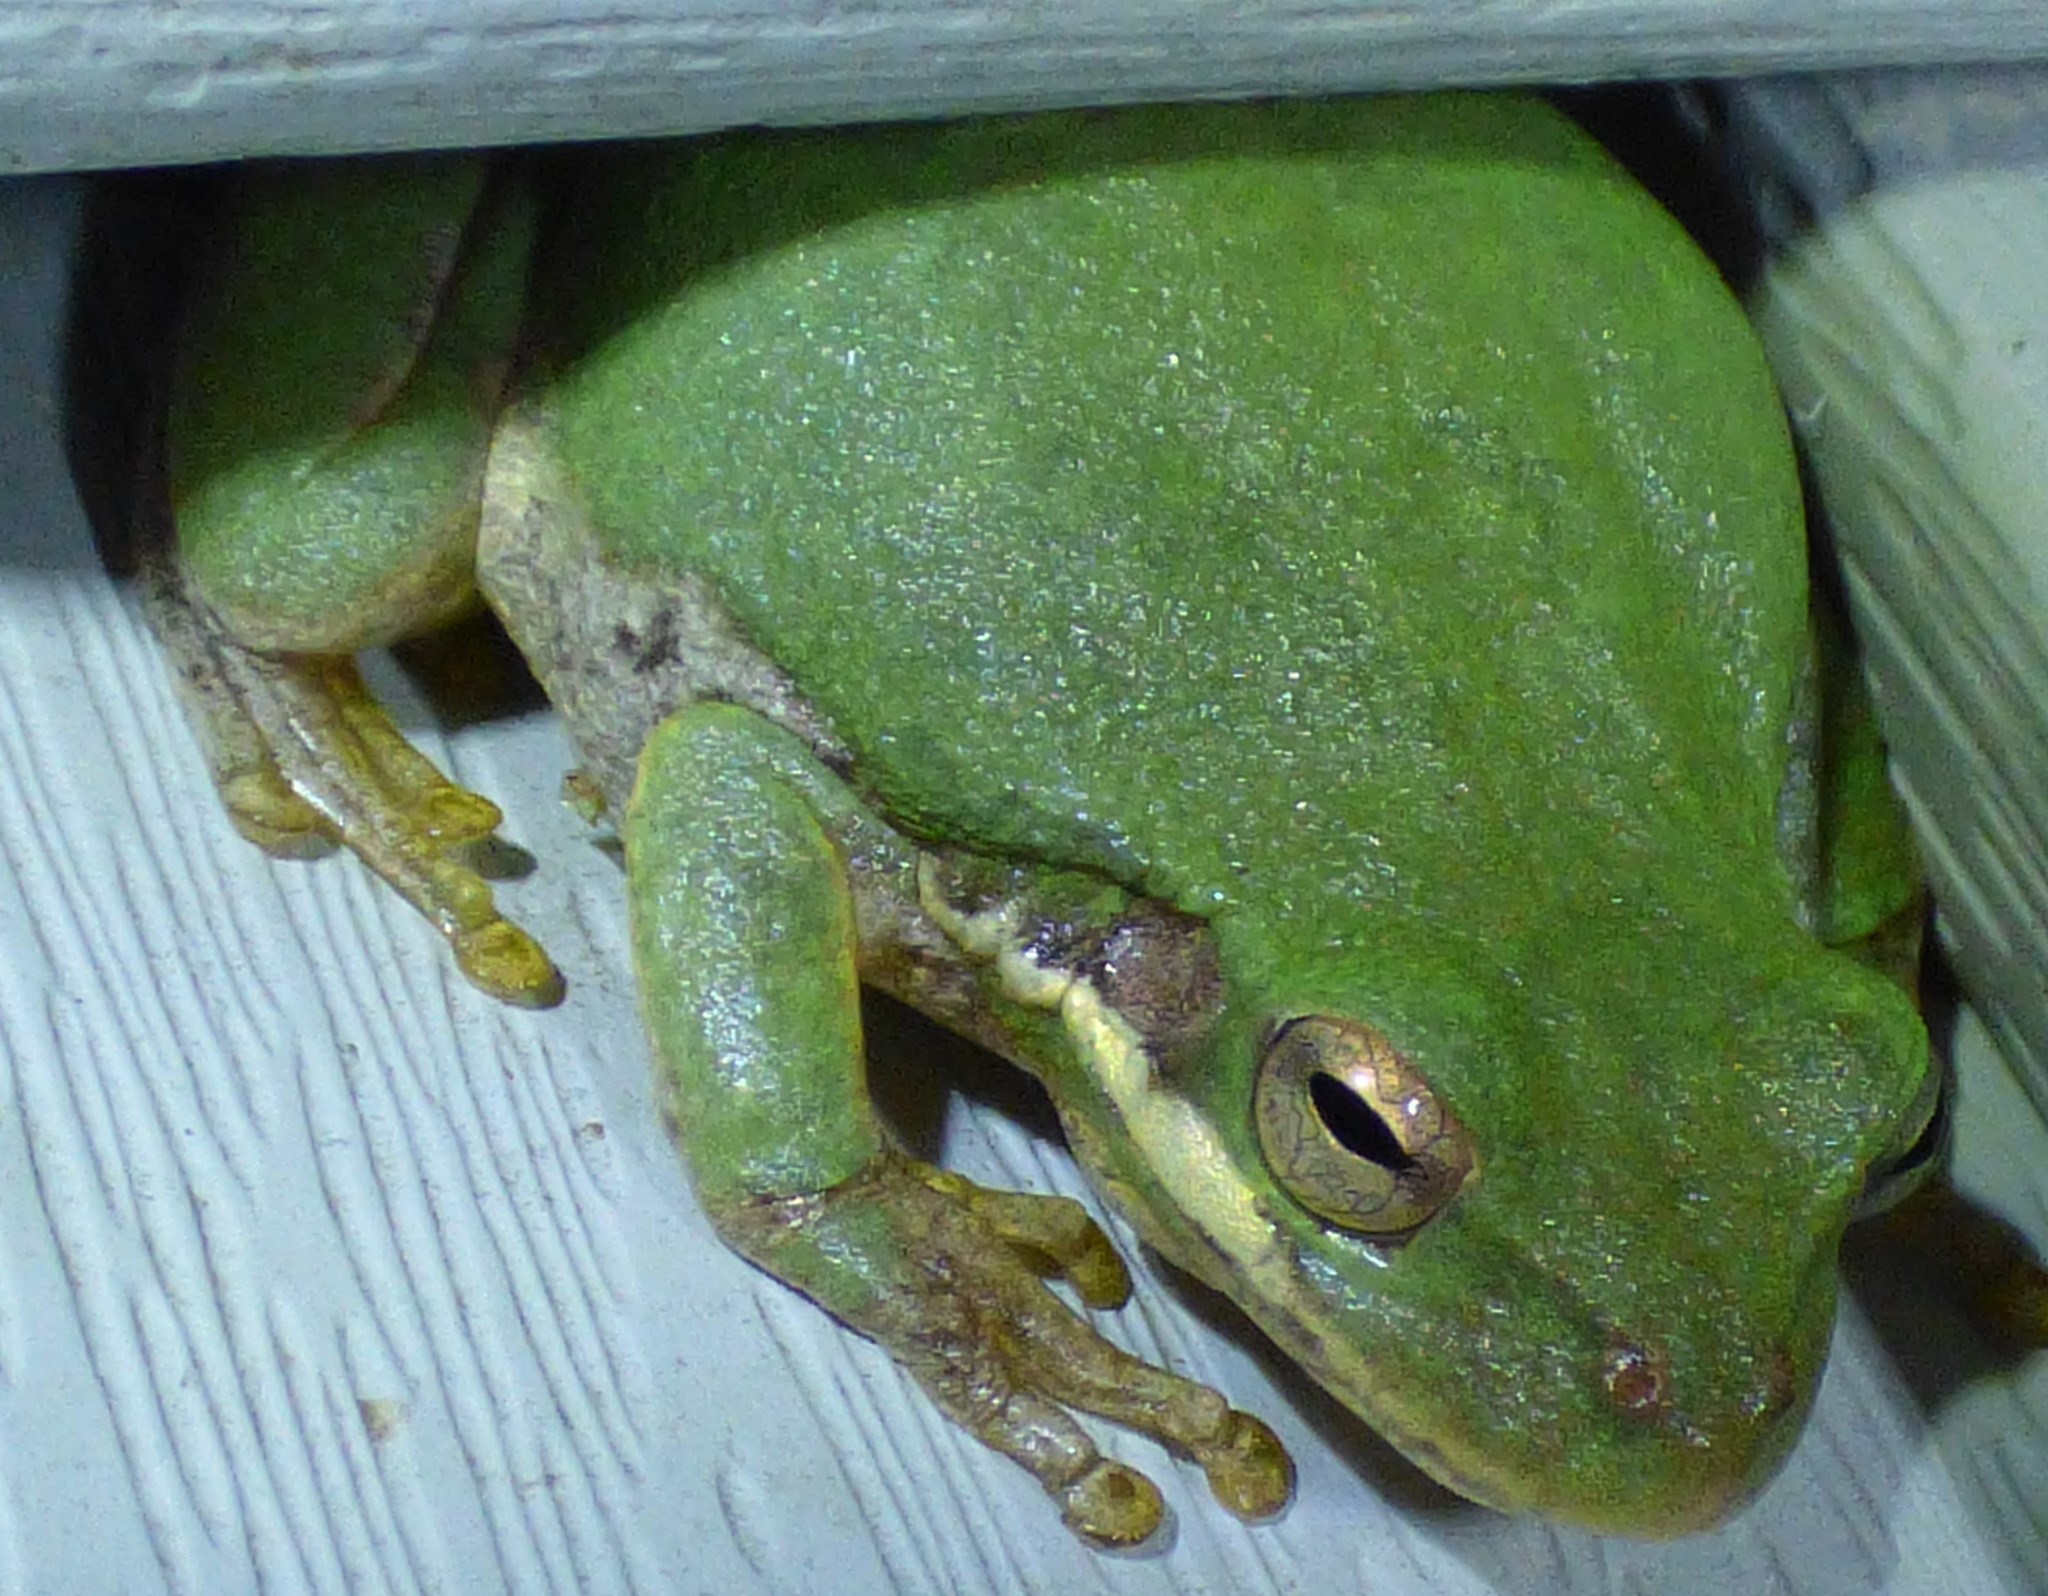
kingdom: Animalia
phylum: Chordata
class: Amphibia
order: Anura
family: Hylidae
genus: Dryophytes
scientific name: Dryophytes squirellus
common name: Squirrel treefrog
